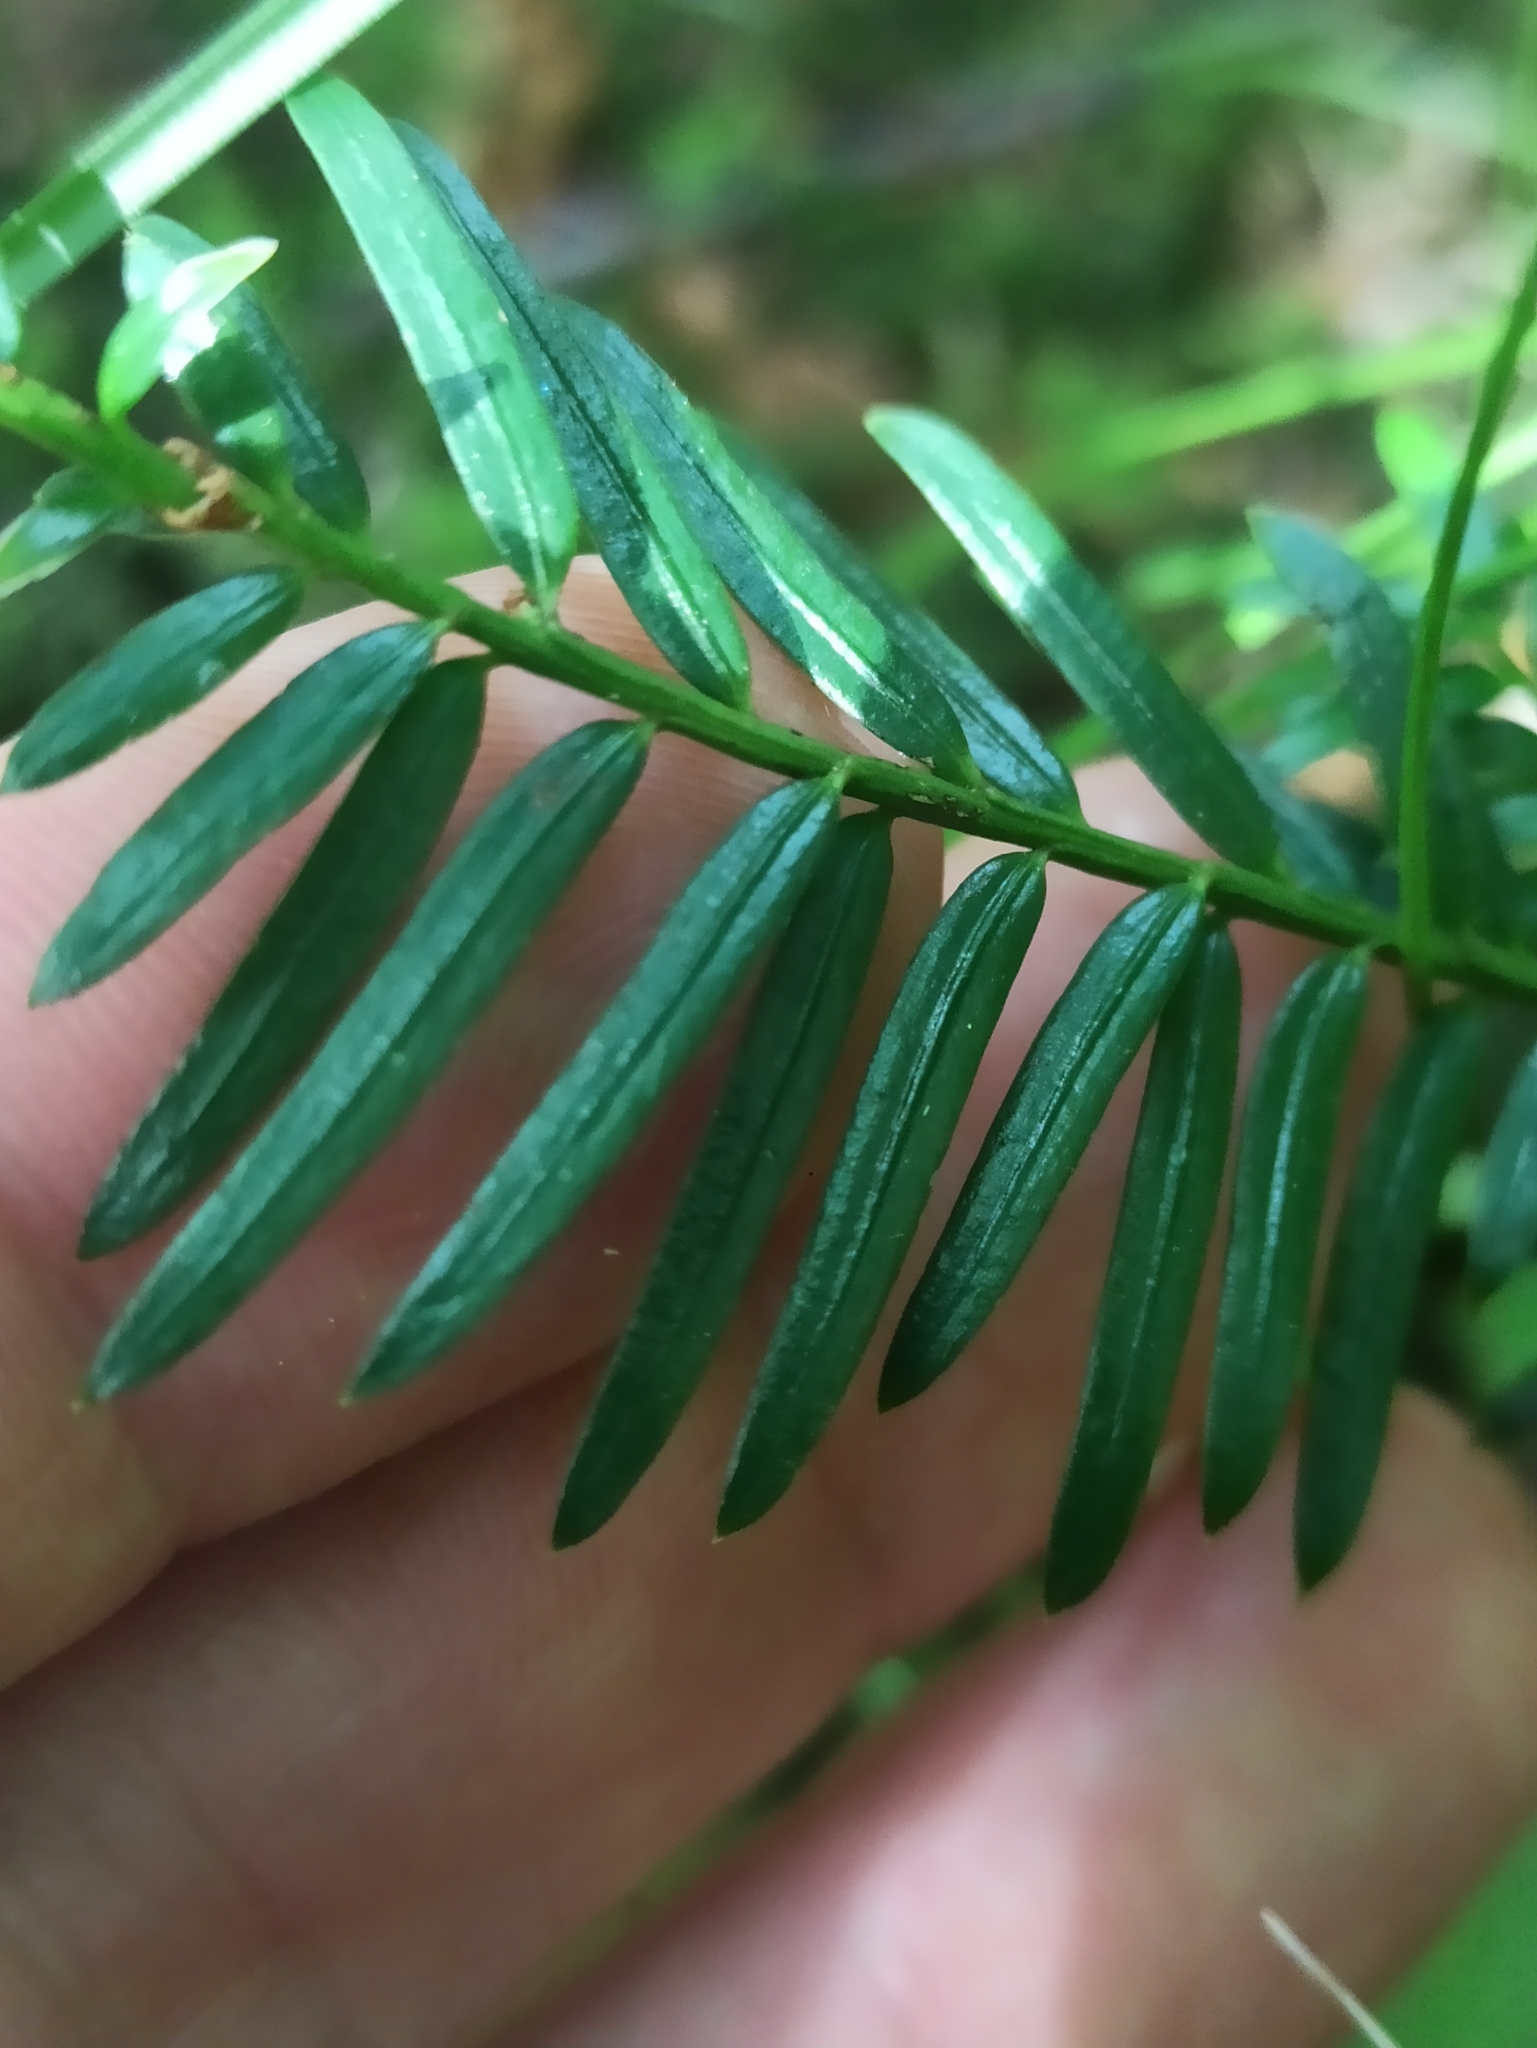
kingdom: Plantae
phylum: Tracheophyta
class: Pinopsida
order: Pinales
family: Taxaceae
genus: Taxus
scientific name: Taxus baccata
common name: Yew
